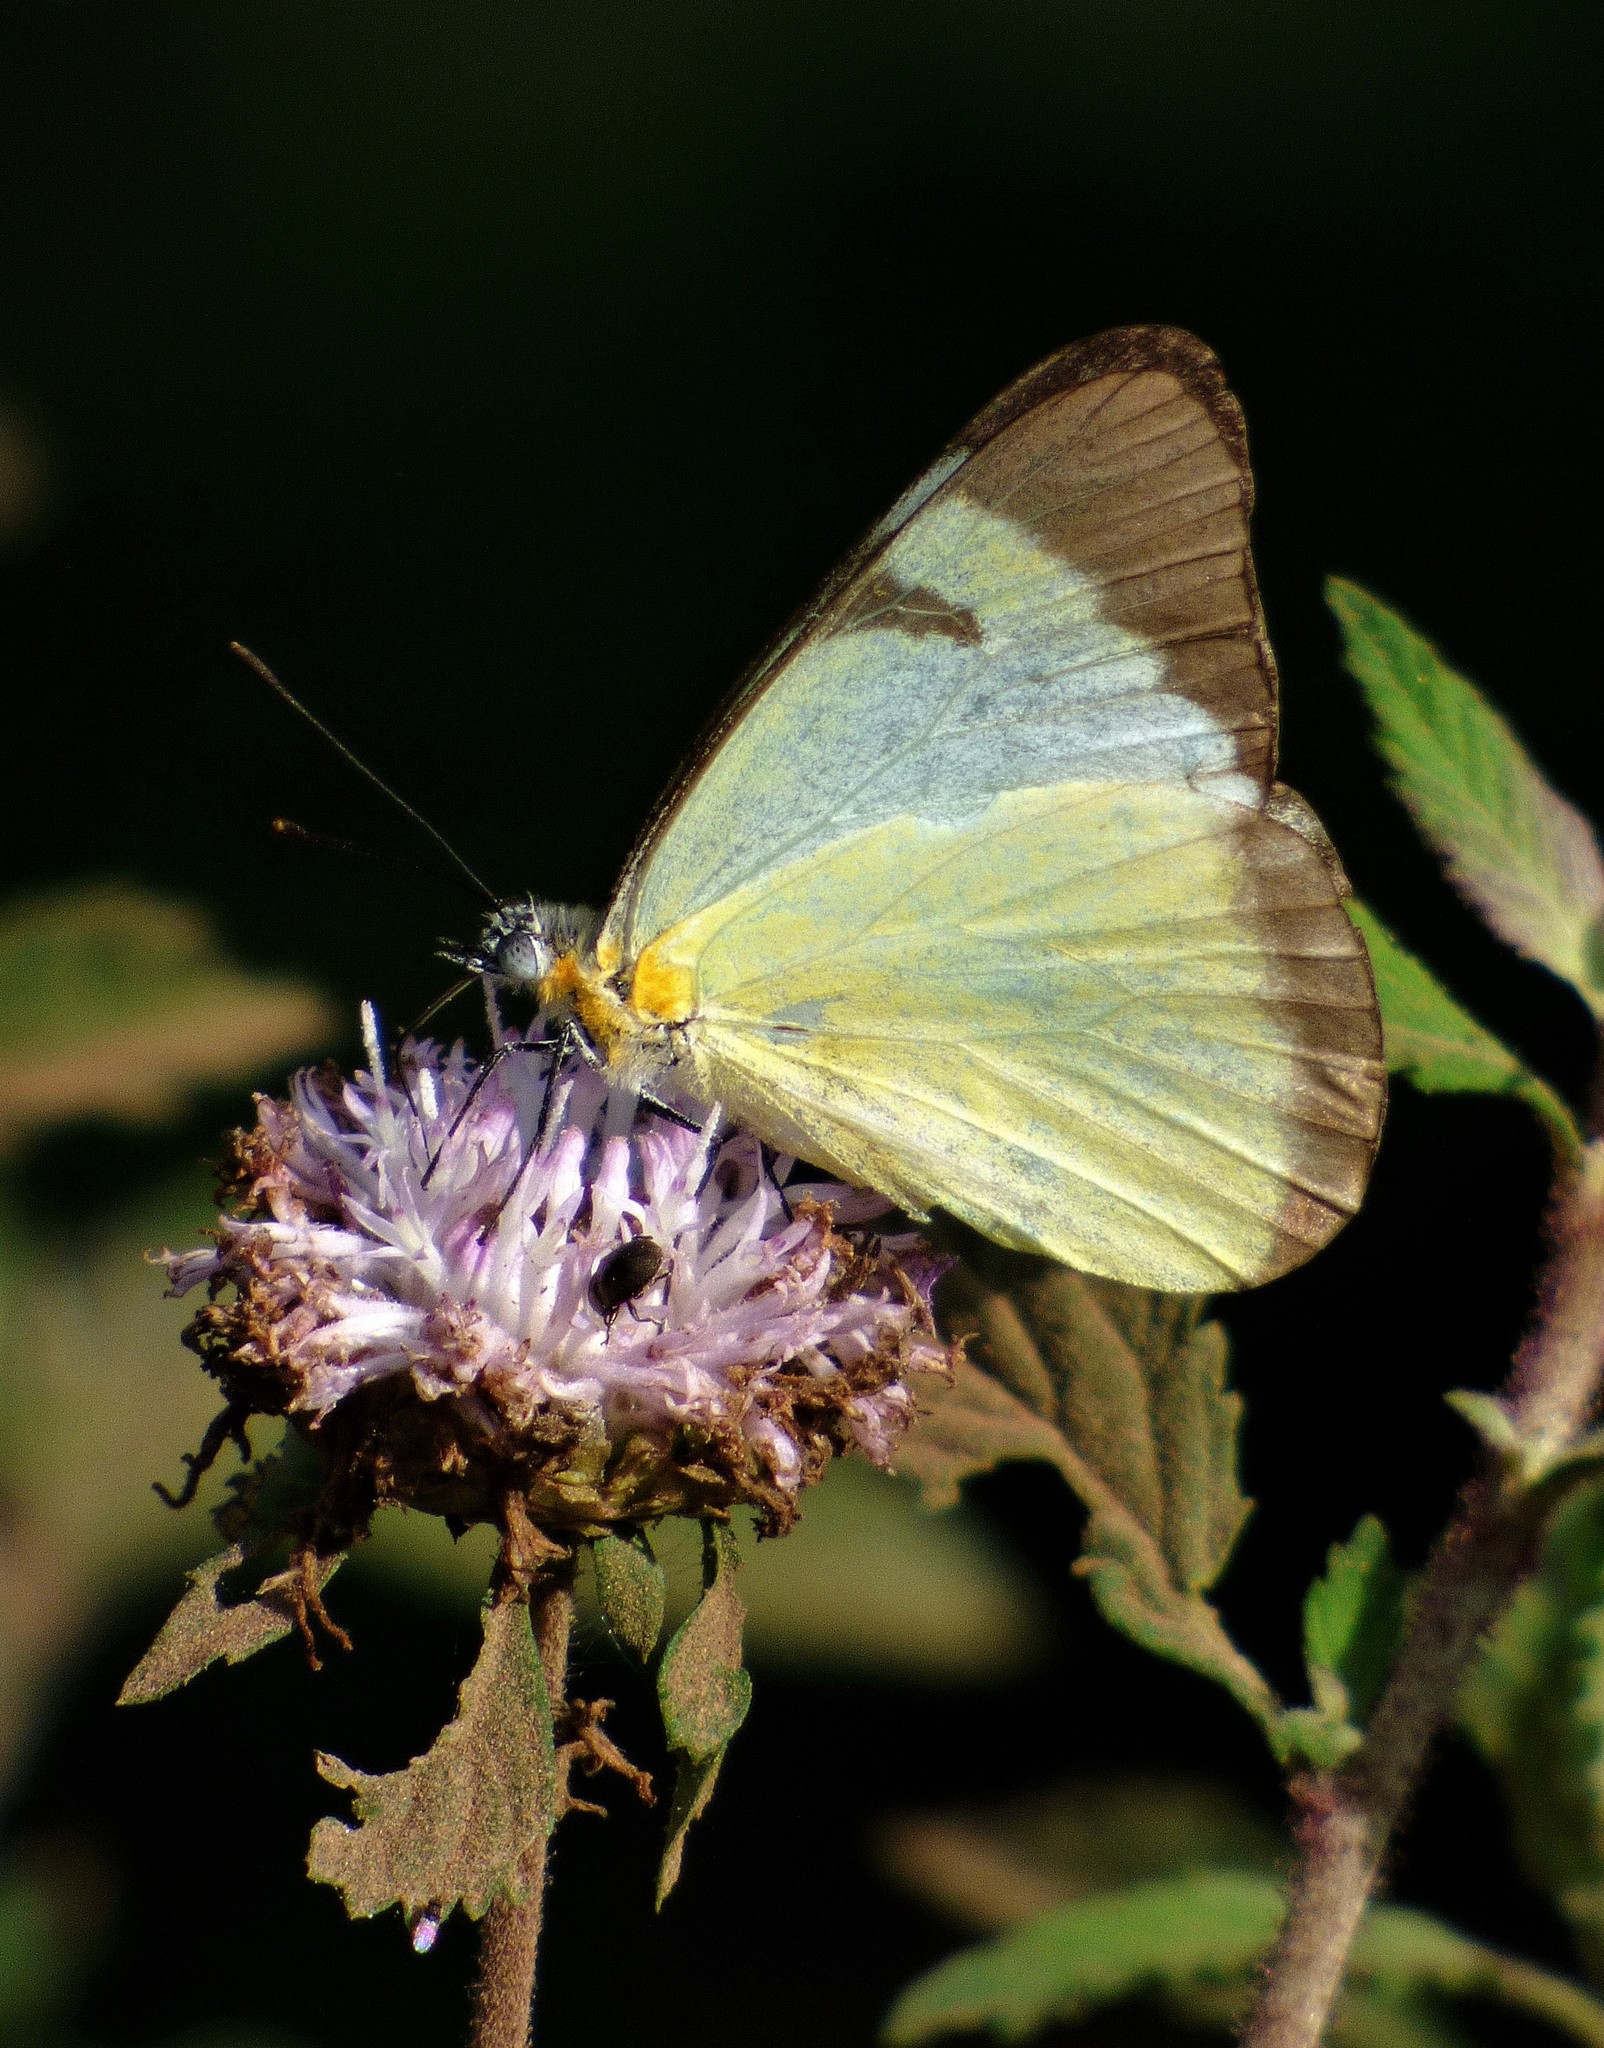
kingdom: Animalia
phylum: Arthropoda
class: Insecta
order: Lepidoptera
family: Pieridae
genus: Melete
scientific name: Melete lycimnia
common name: Common melwhite
